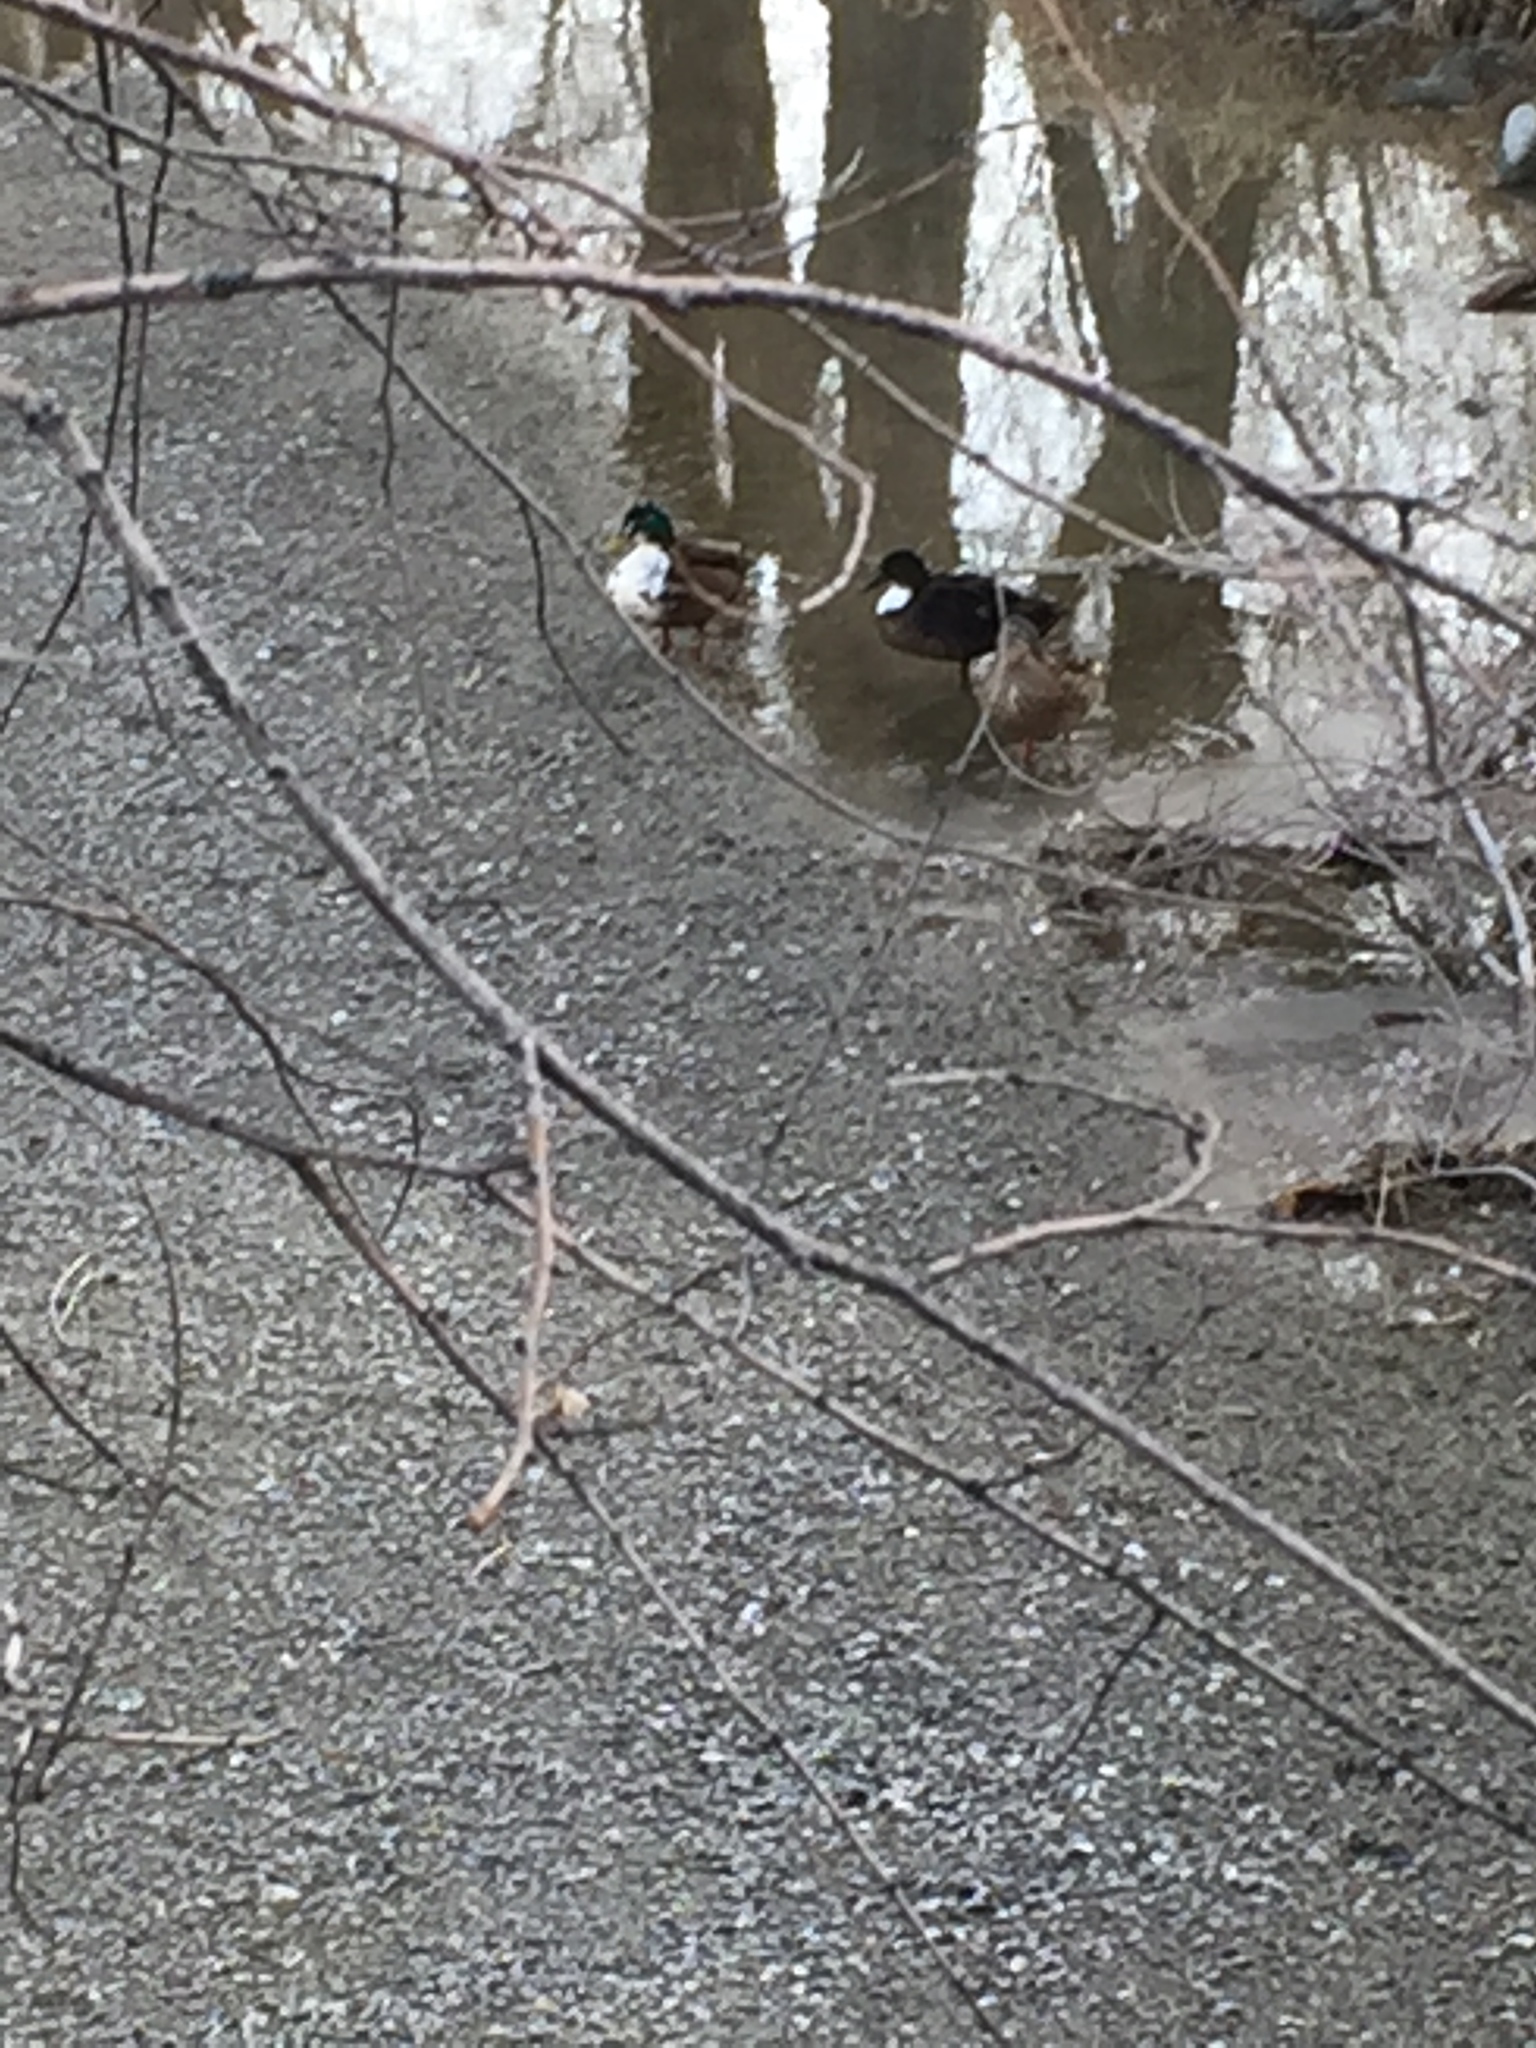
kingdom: Animalia
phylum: Chordata
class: Aves
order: Anseriformes
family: Anatidae
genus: Anas
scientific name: Anas platyrhynchos
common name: Mallard
